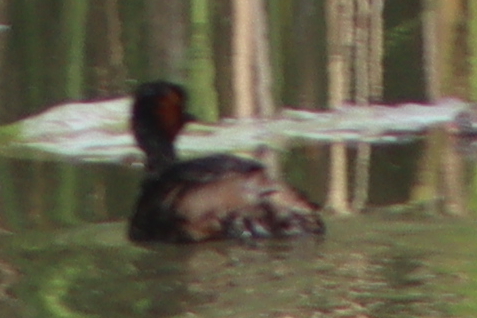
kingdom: Animalia
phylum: Chordata
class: Aves
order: Podicipediformes
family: Podicipedidae
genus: Tachybaptus
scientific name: Tachybaptus ruficollis
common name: Little grebe
